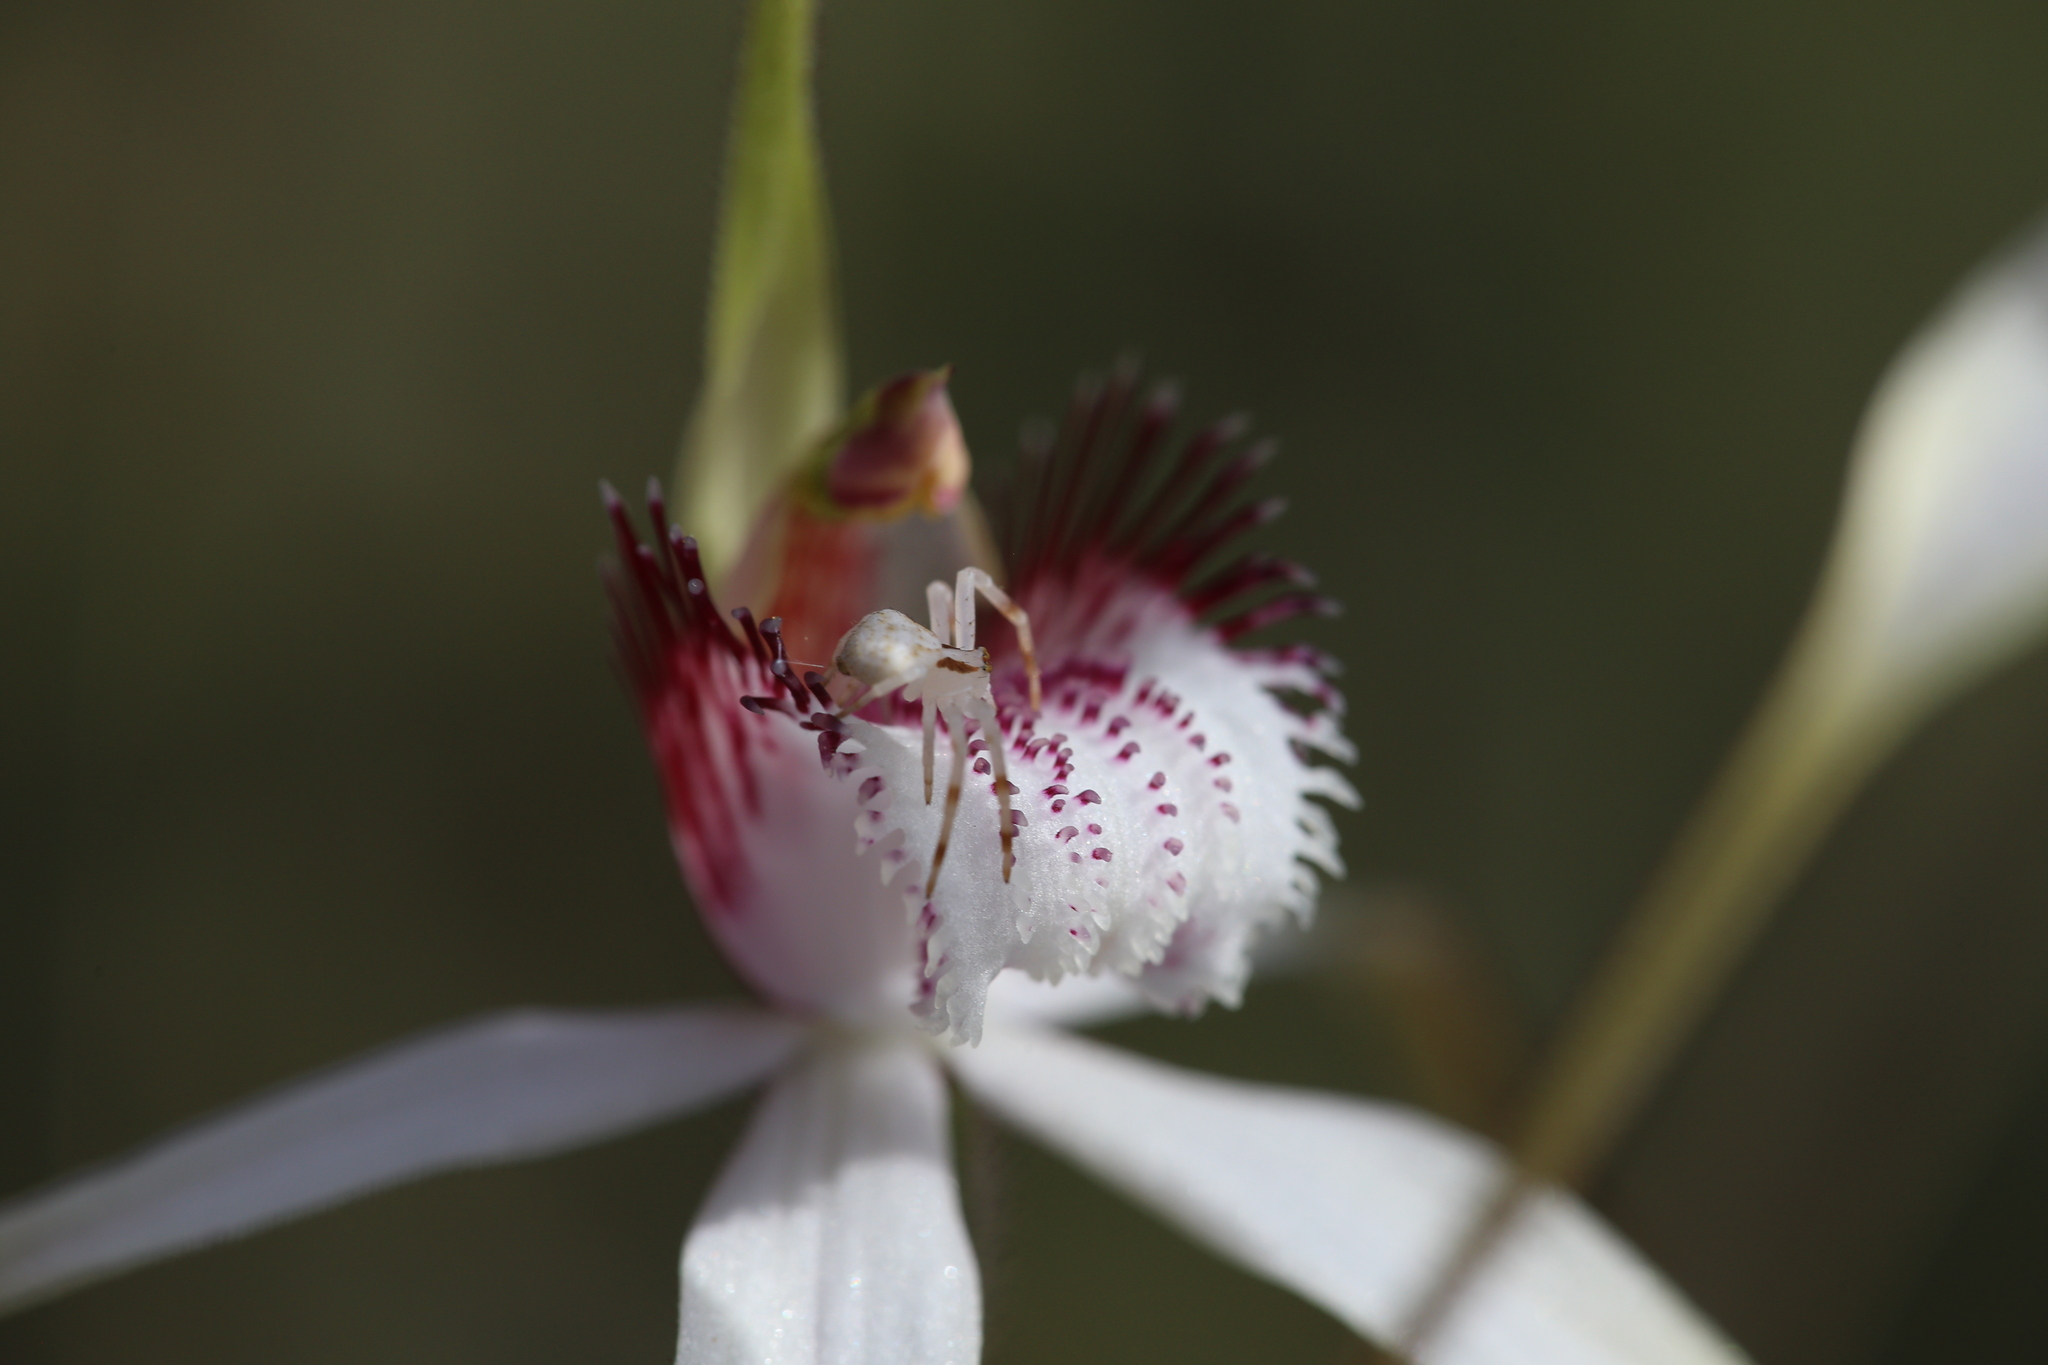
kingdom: Animalia
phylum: Arthropoda
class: Arachnida
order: Araneae
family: Thomisidae
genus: Zygometis
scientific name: Zygometis xanthogaster
